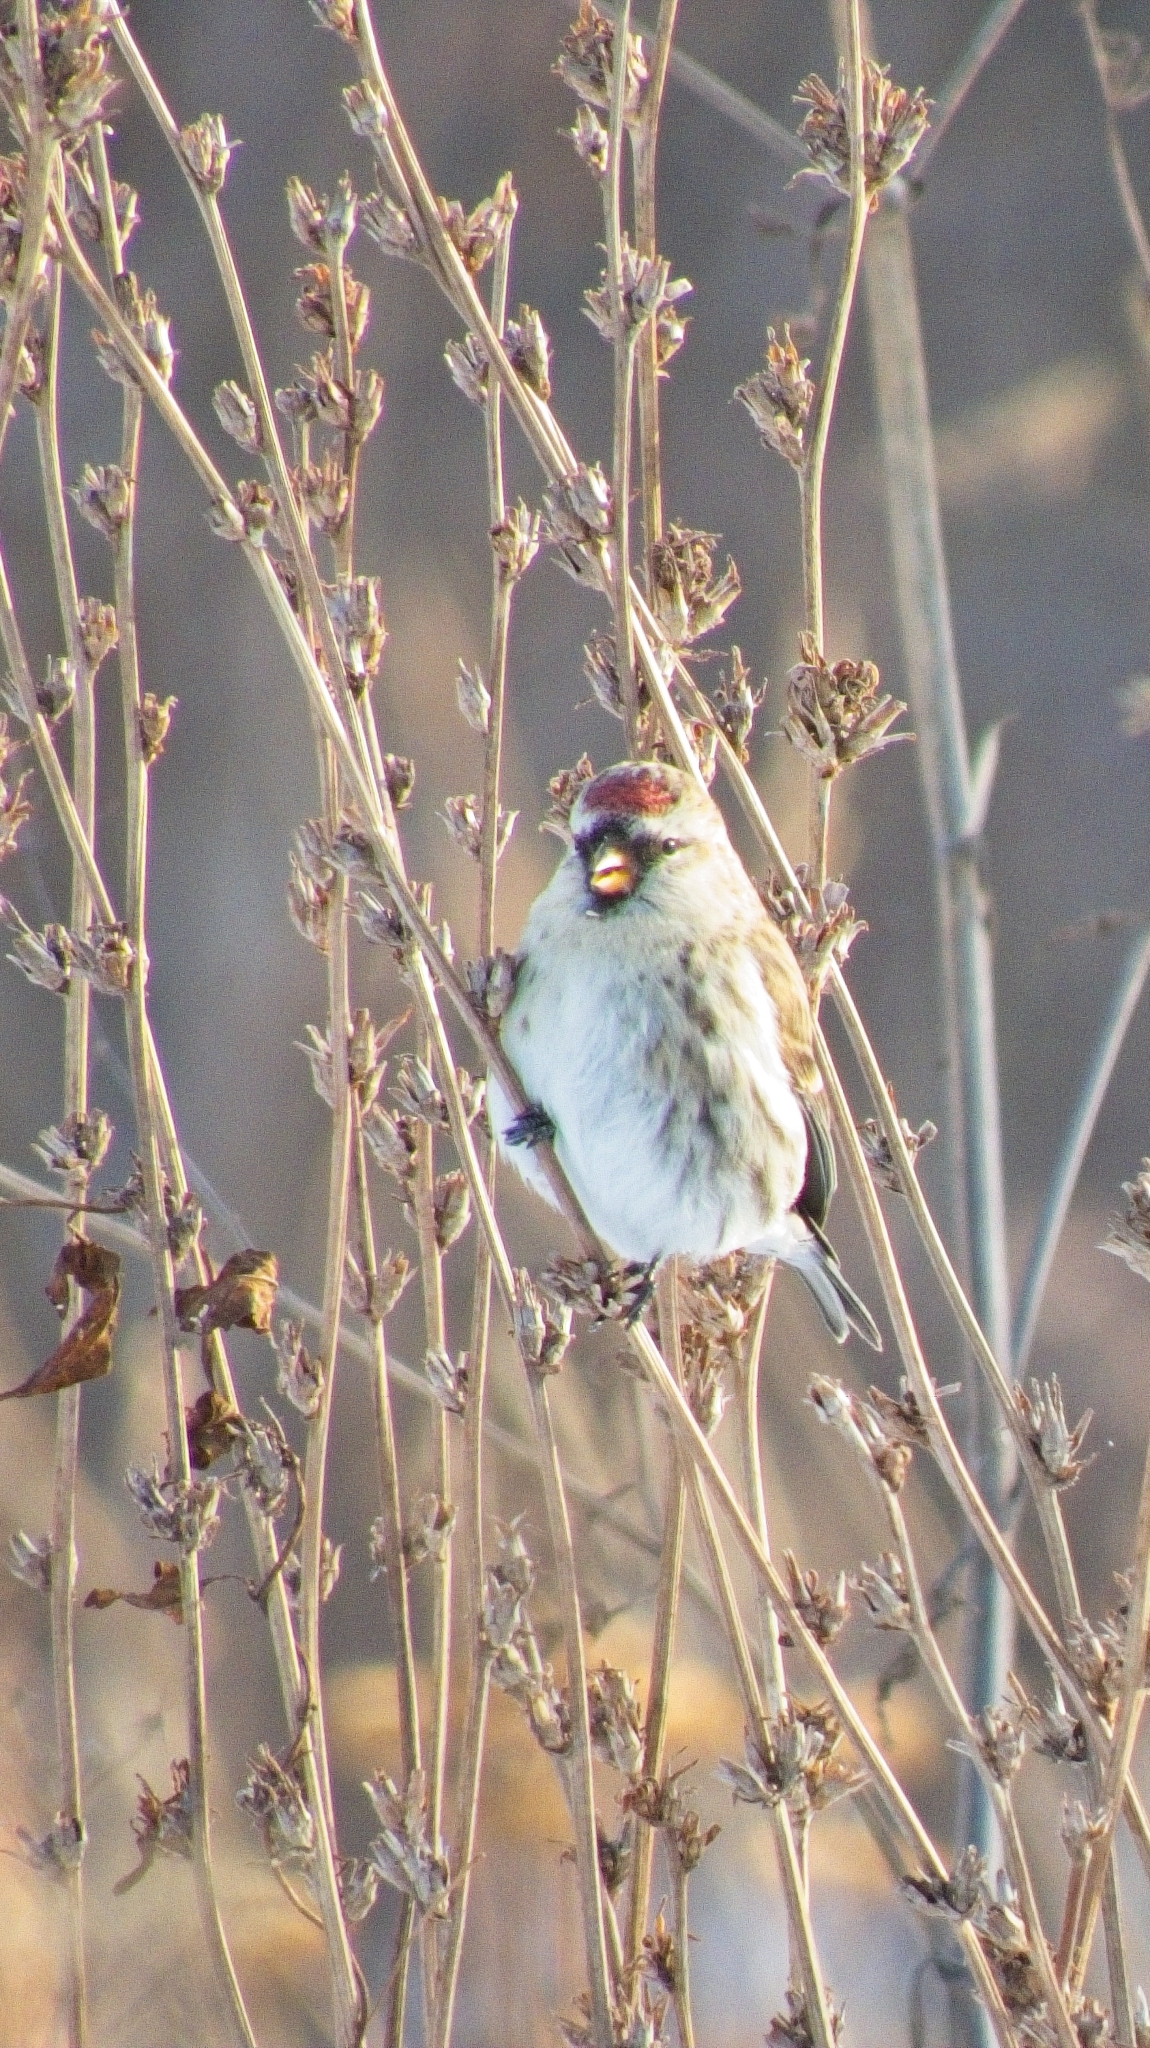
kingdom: Animalia
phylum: Chordata
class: Aves
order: Passeriformes
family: Fringillidae
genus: Acanthis
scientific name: Acanthis flammea
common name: Common redpoll
